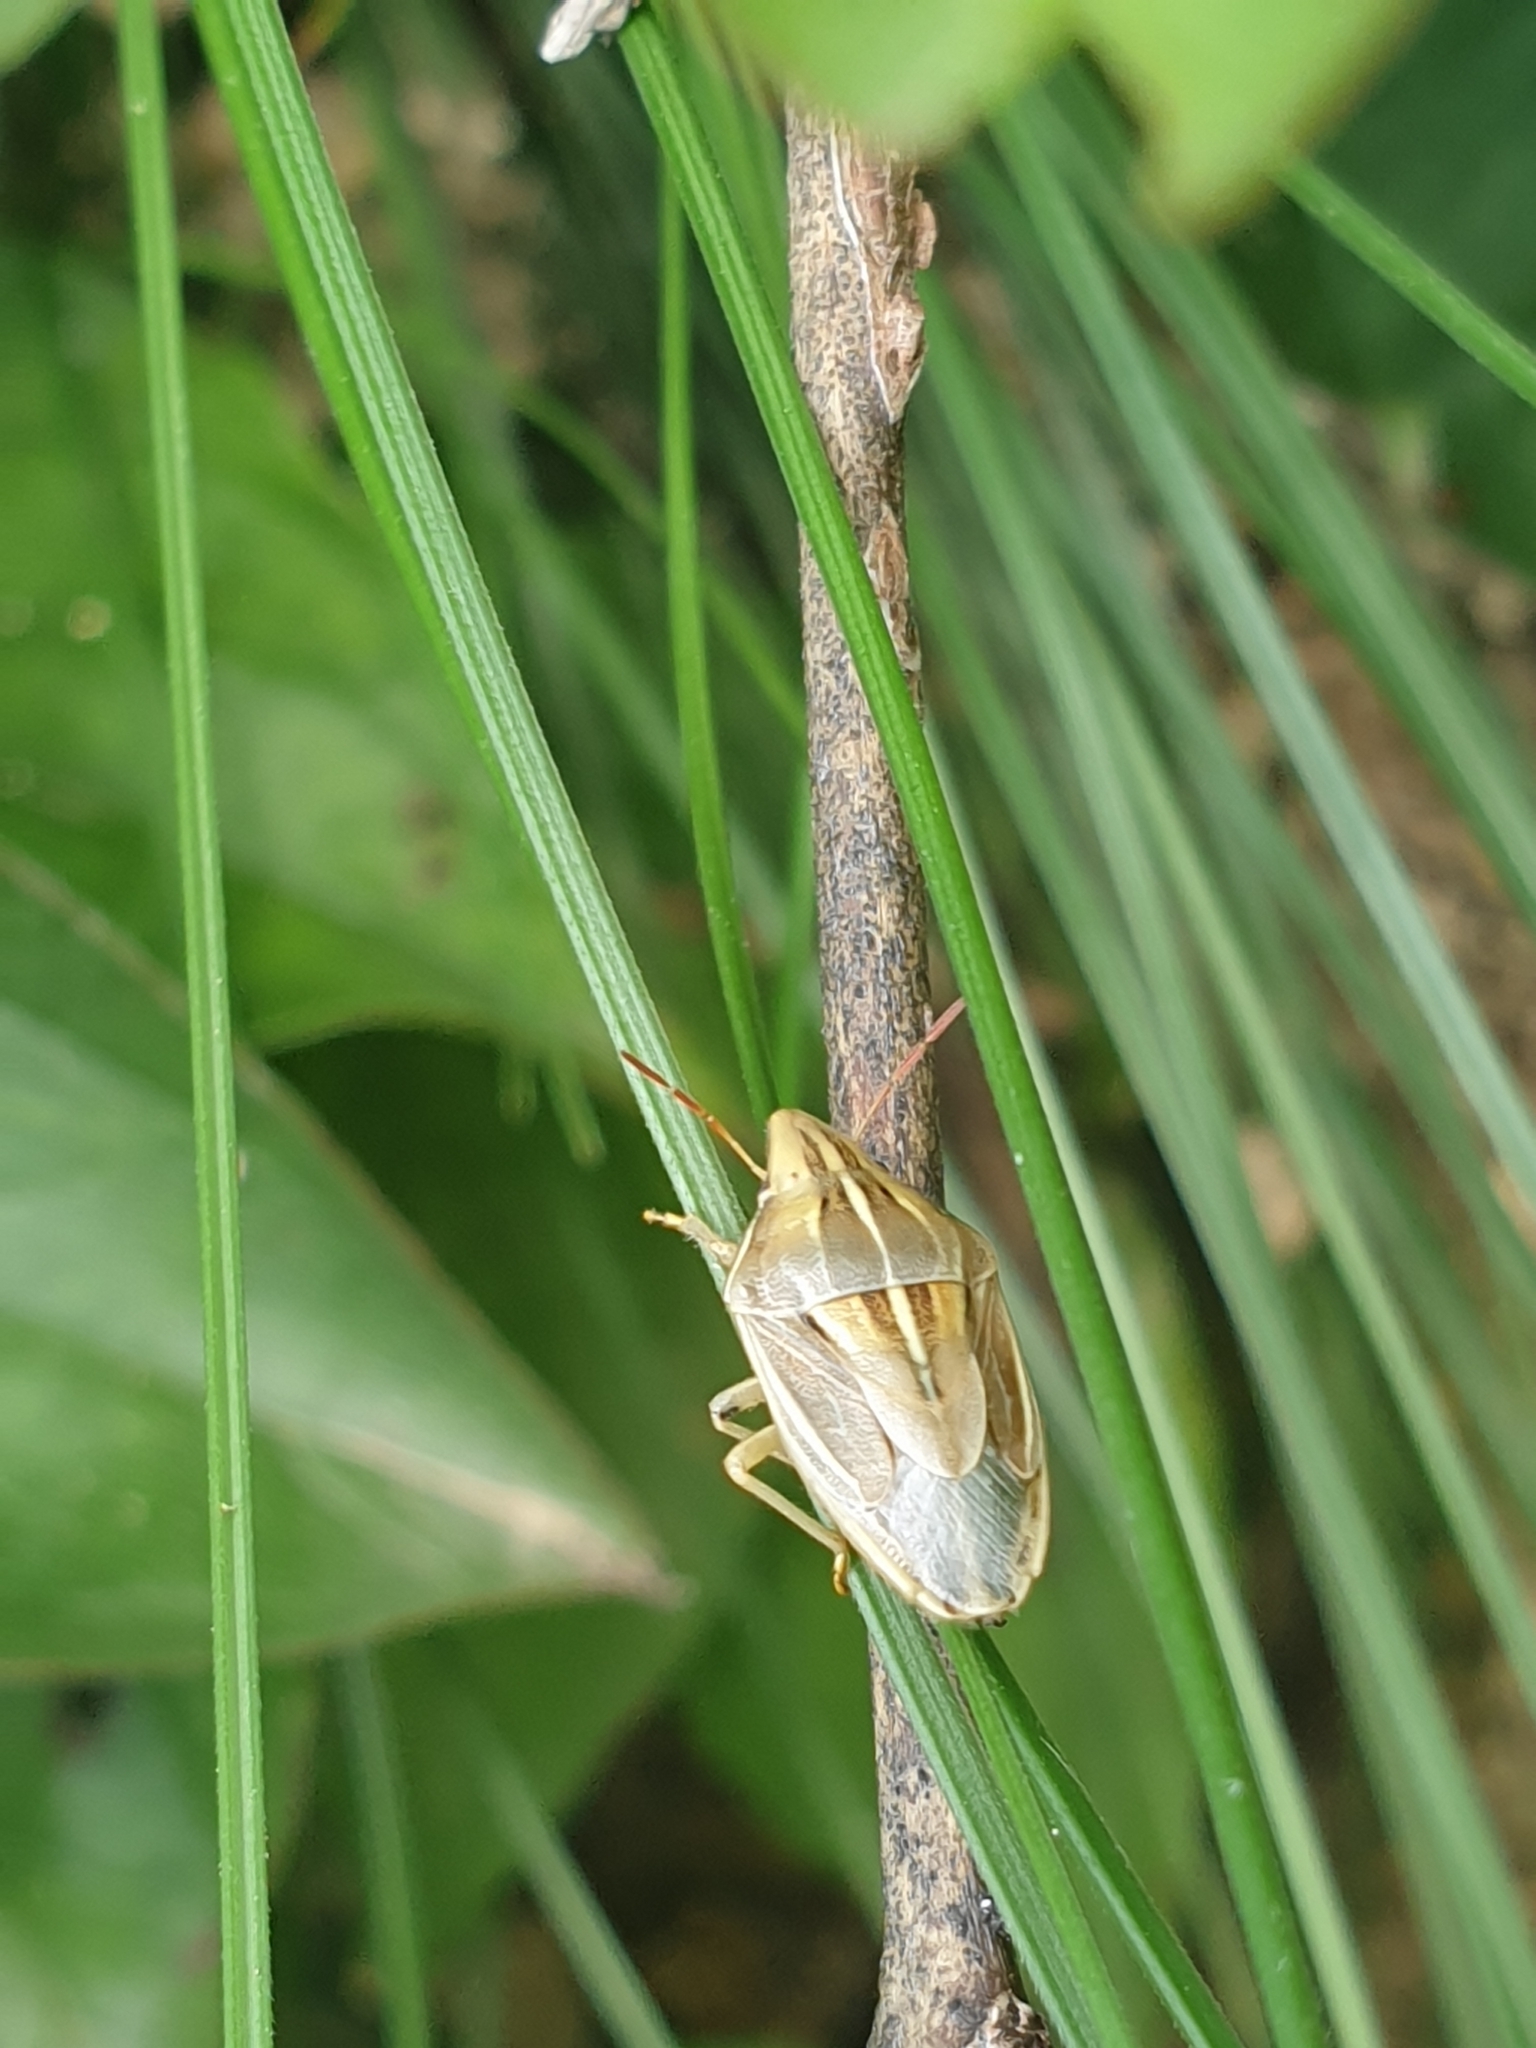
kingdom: Animalia
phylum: Arthropoda
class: Insecta
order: Hemiptera
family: Pentatomidae
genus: Aelia
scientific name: Aelia rostrata
